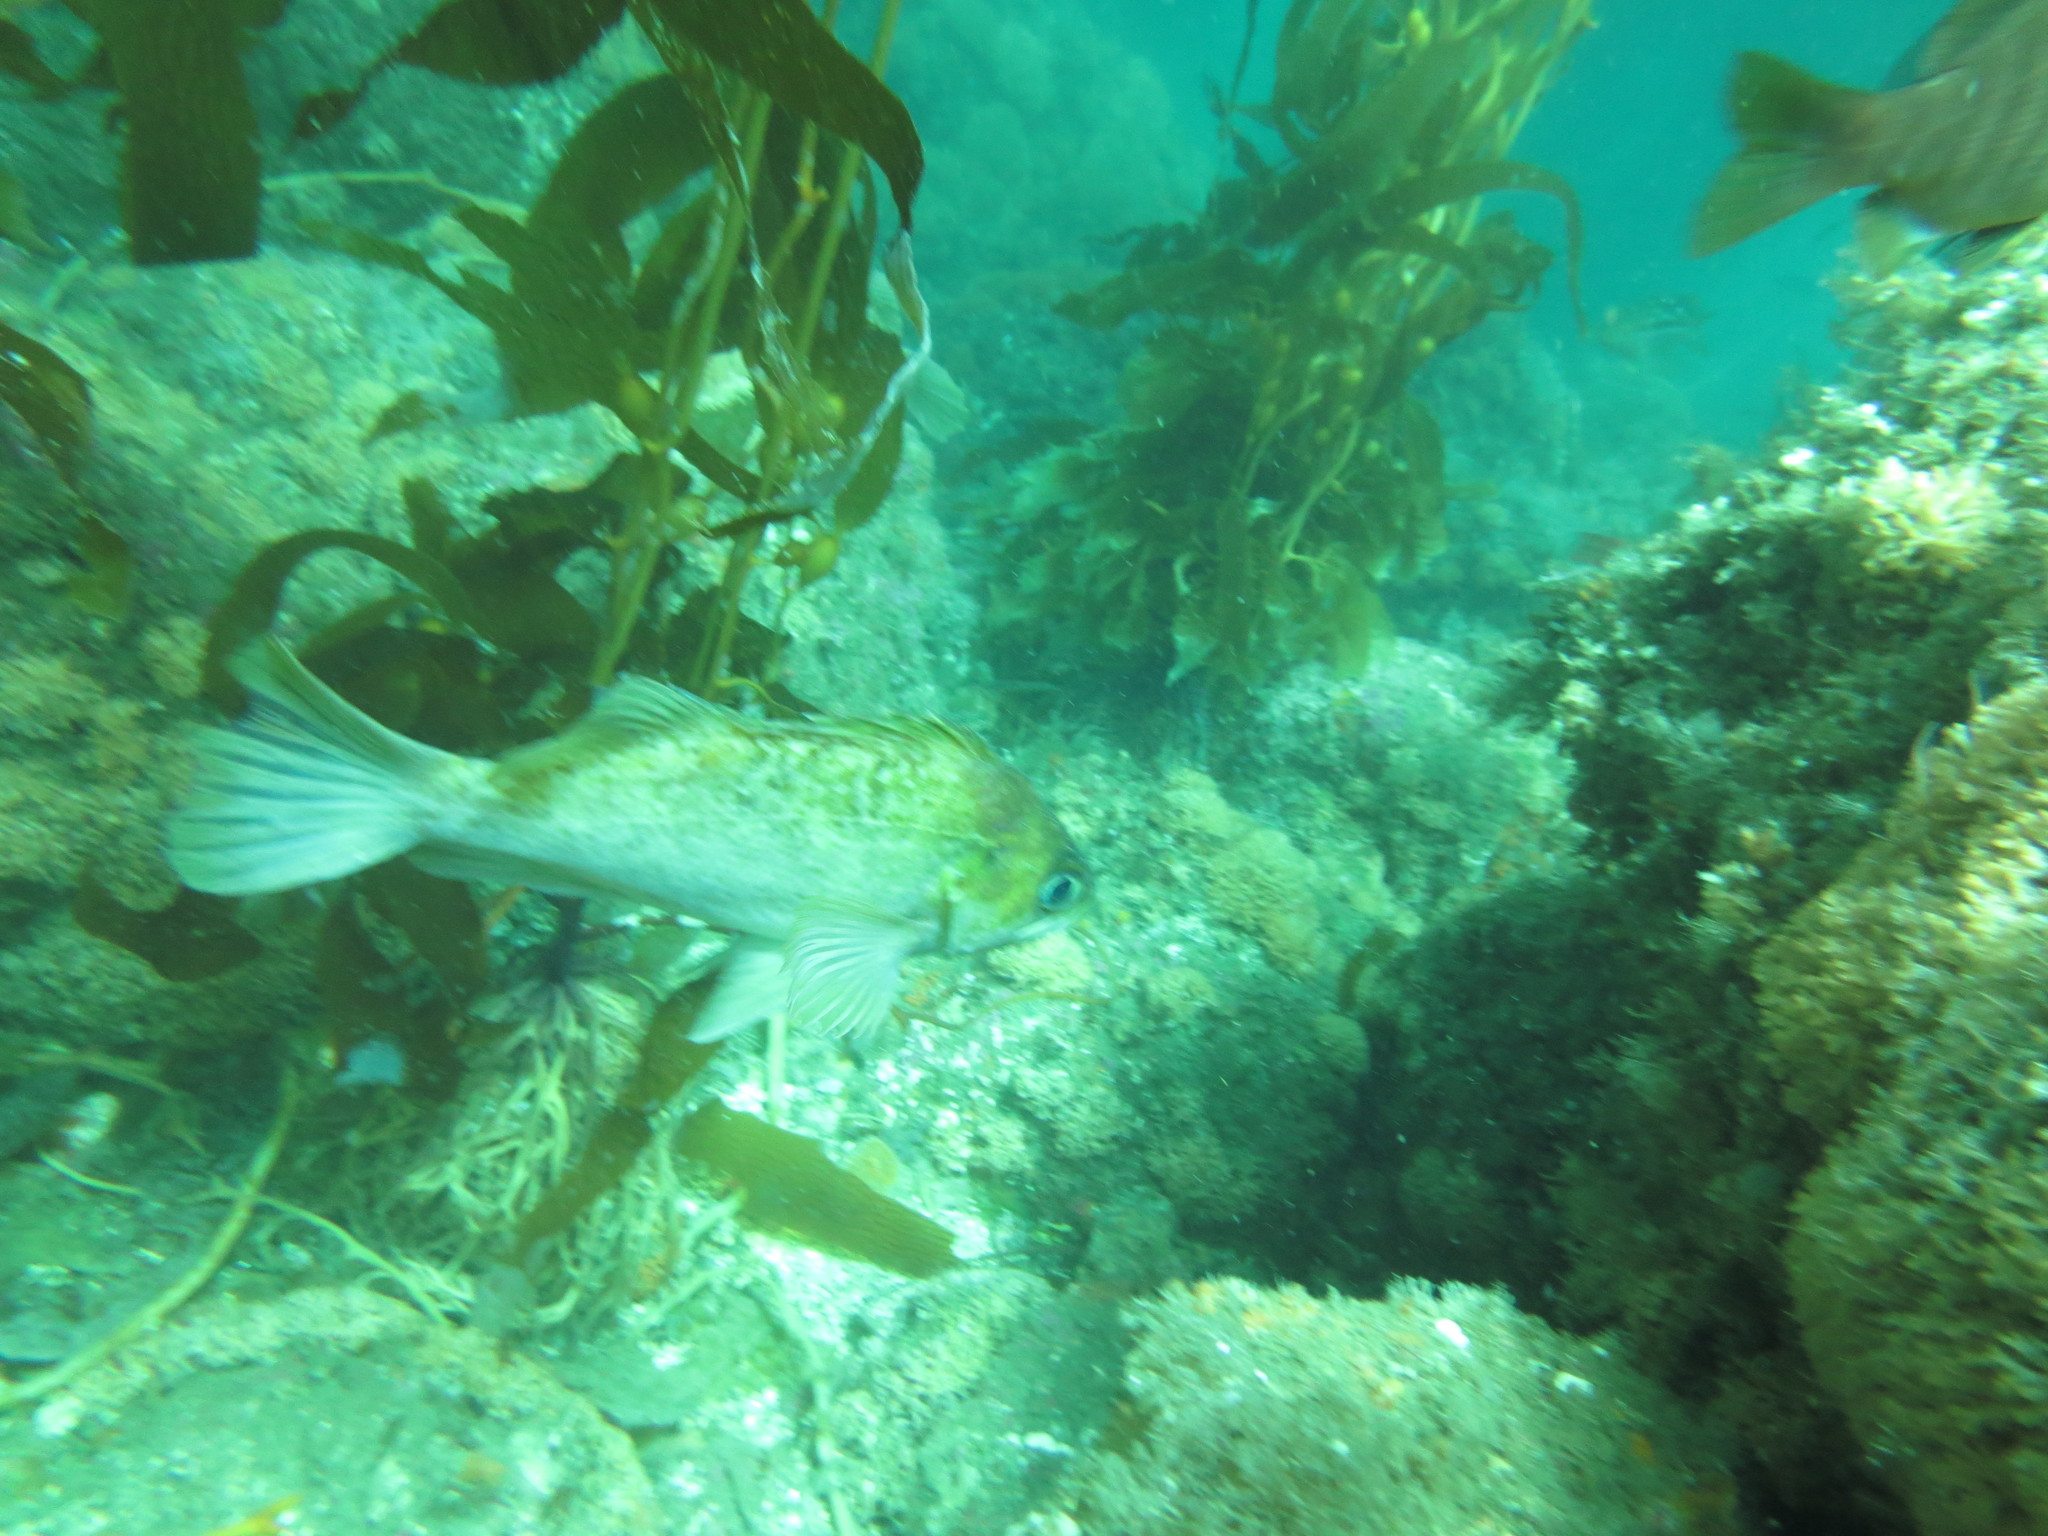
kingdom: Animalia
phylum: Chordata
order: Scorpaeniformes
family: Sebastidae
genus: Sebastes
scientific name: Sebastes atrovirens
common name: Kelp rockfish
